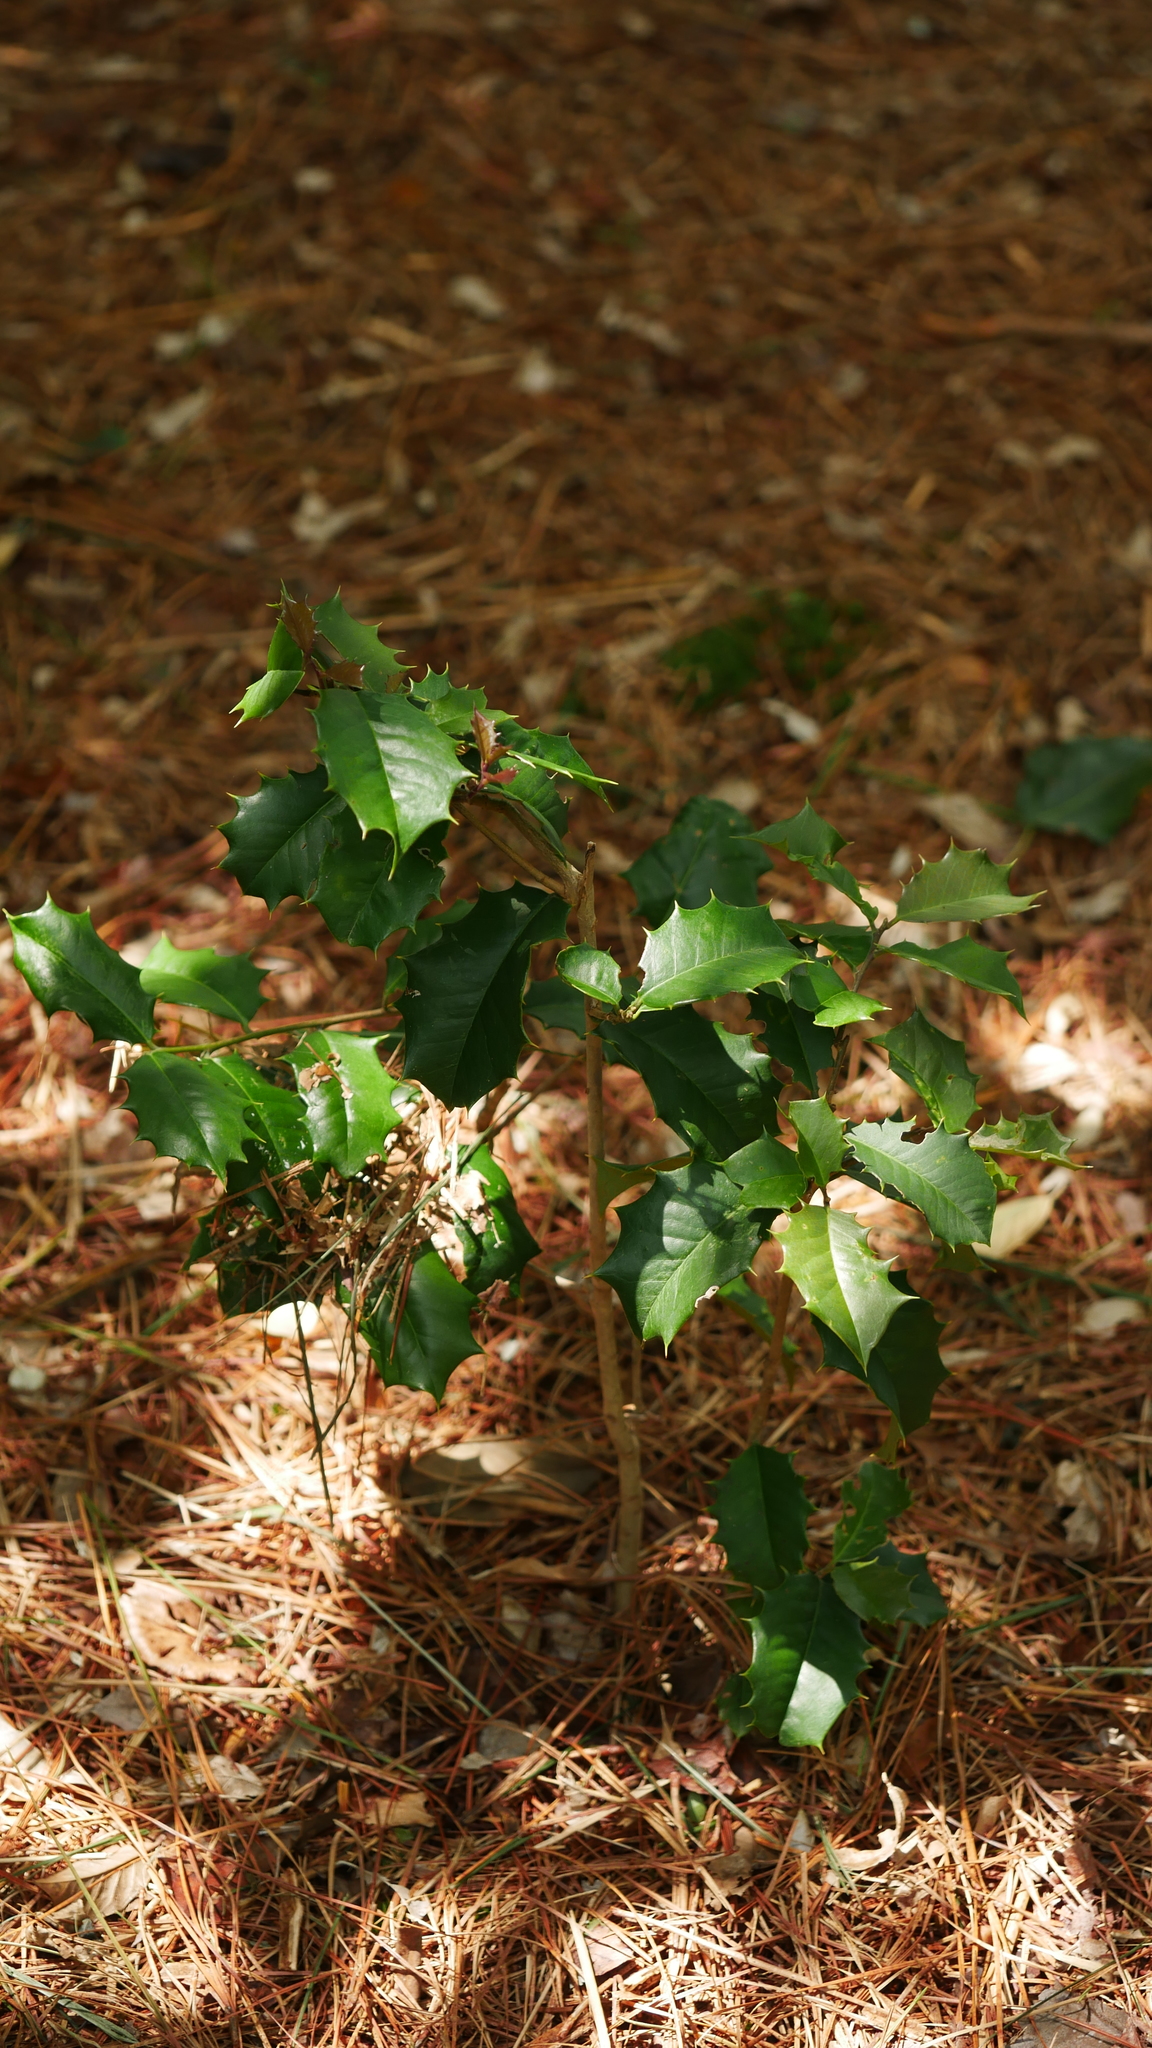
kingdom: Plantae
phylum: Tracheophyta
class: Magnoliopsida
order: Aquifoliales
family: Aquifoliaceae
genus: Ilex
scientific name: Ilex opaca
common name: American holly
